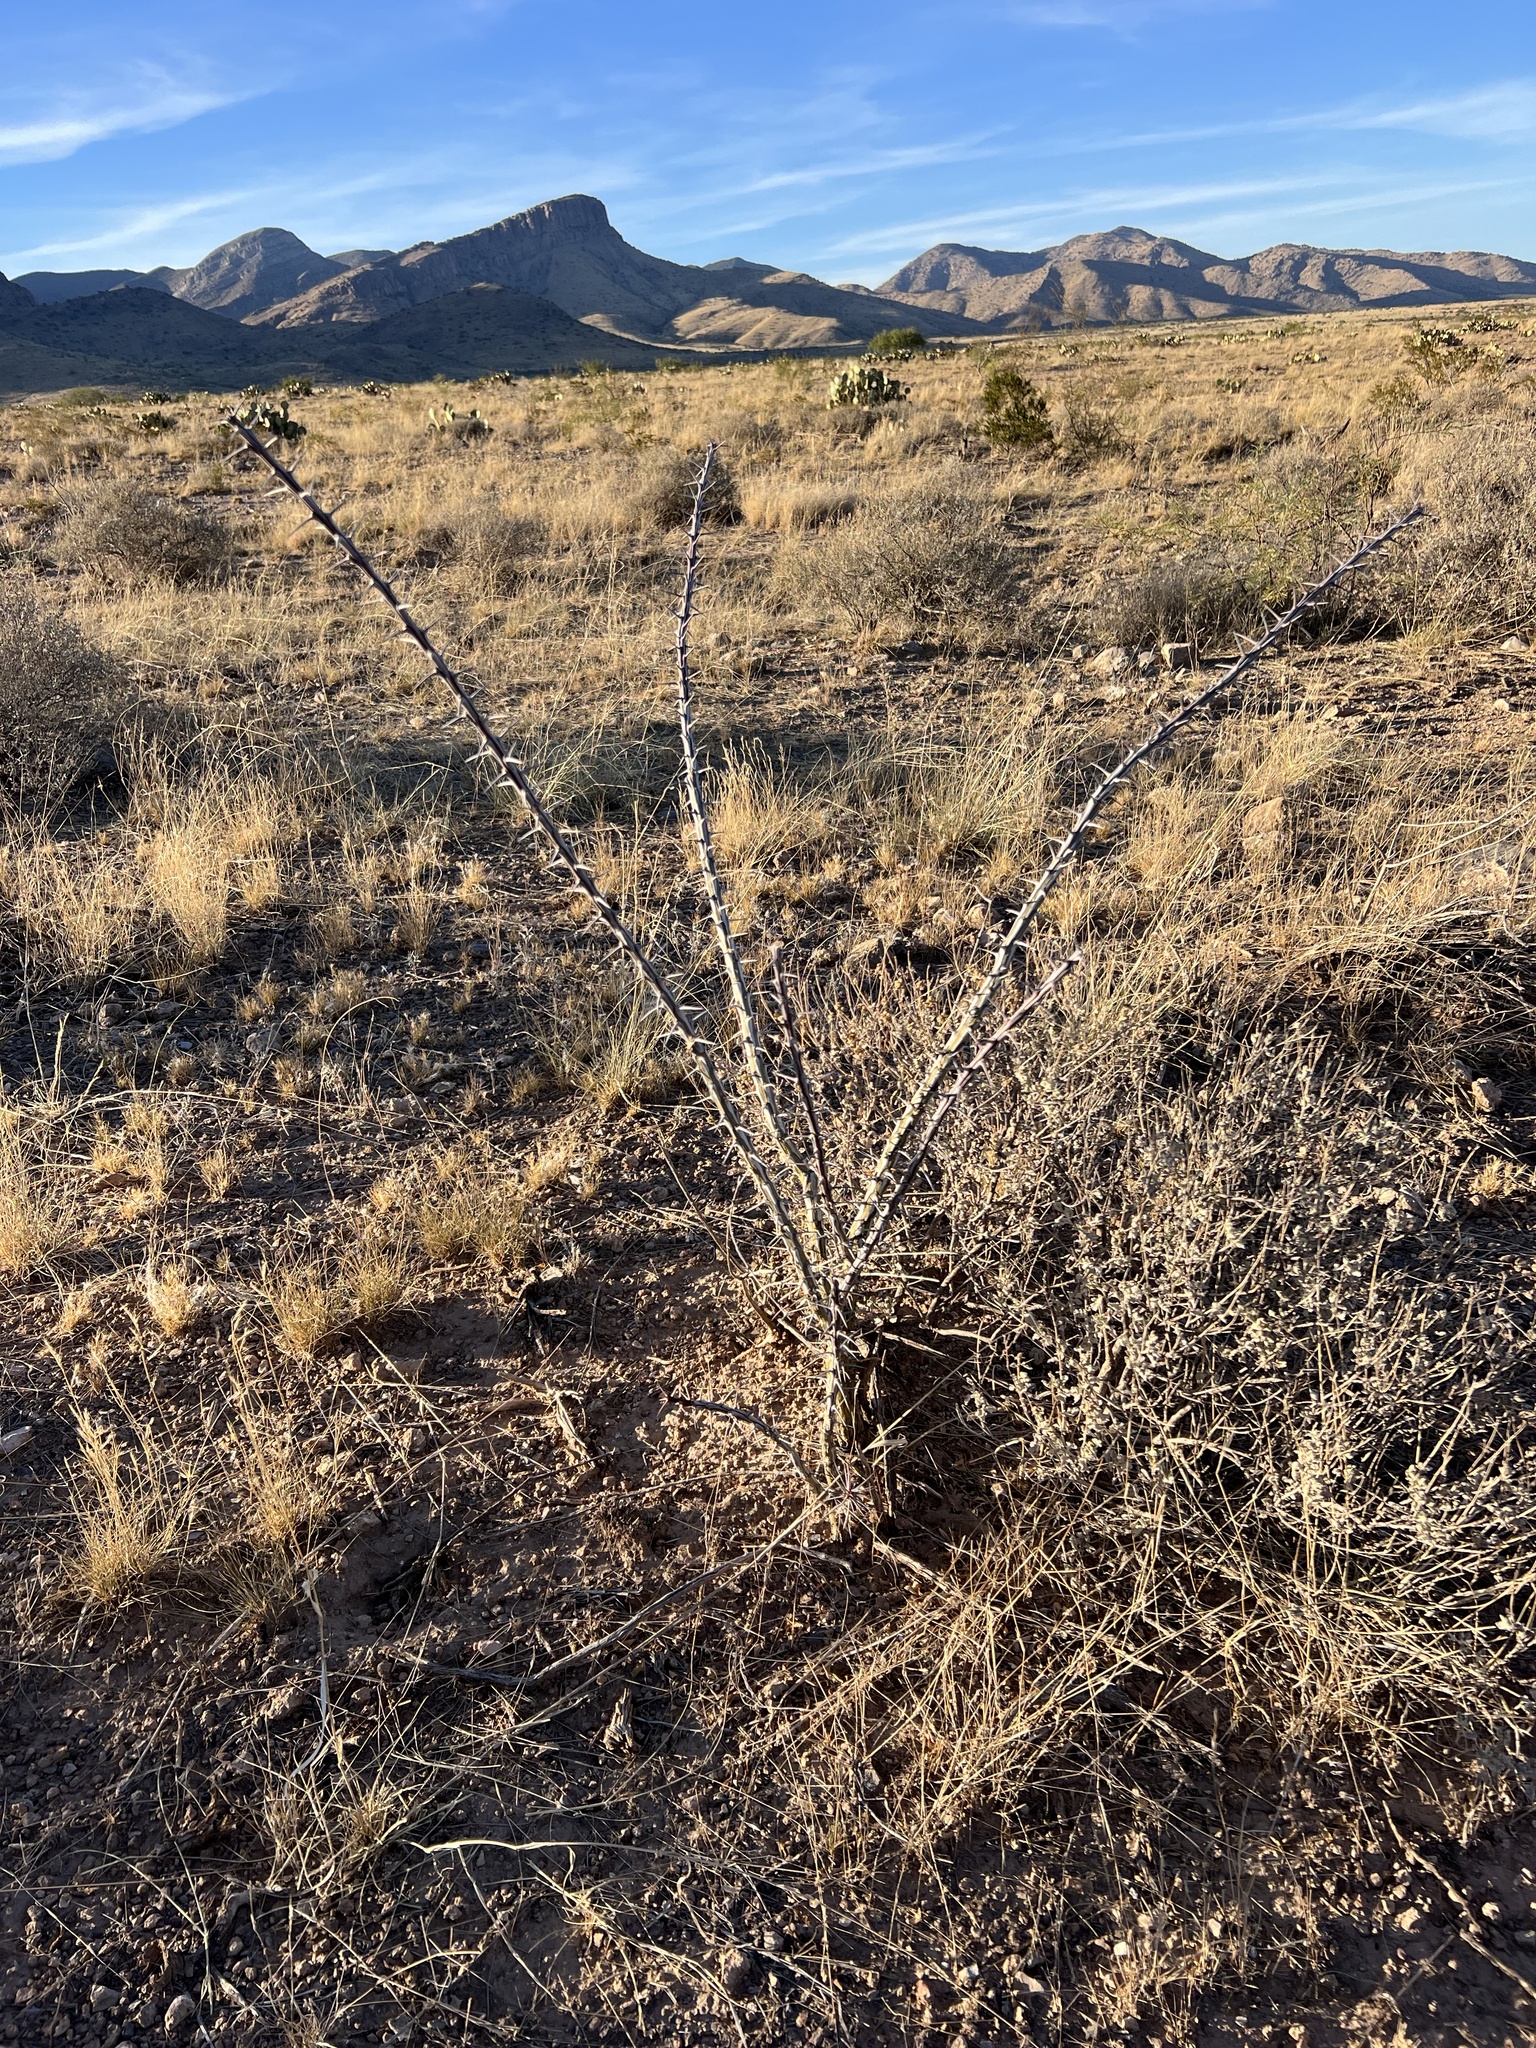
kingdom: Plantae
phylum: Tracheophyta
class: Magnoliopsida
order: Ericales
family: Fouquieriaceae
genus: Fouquieria
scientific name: Fouquieria splendens
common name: Vine-cactus
